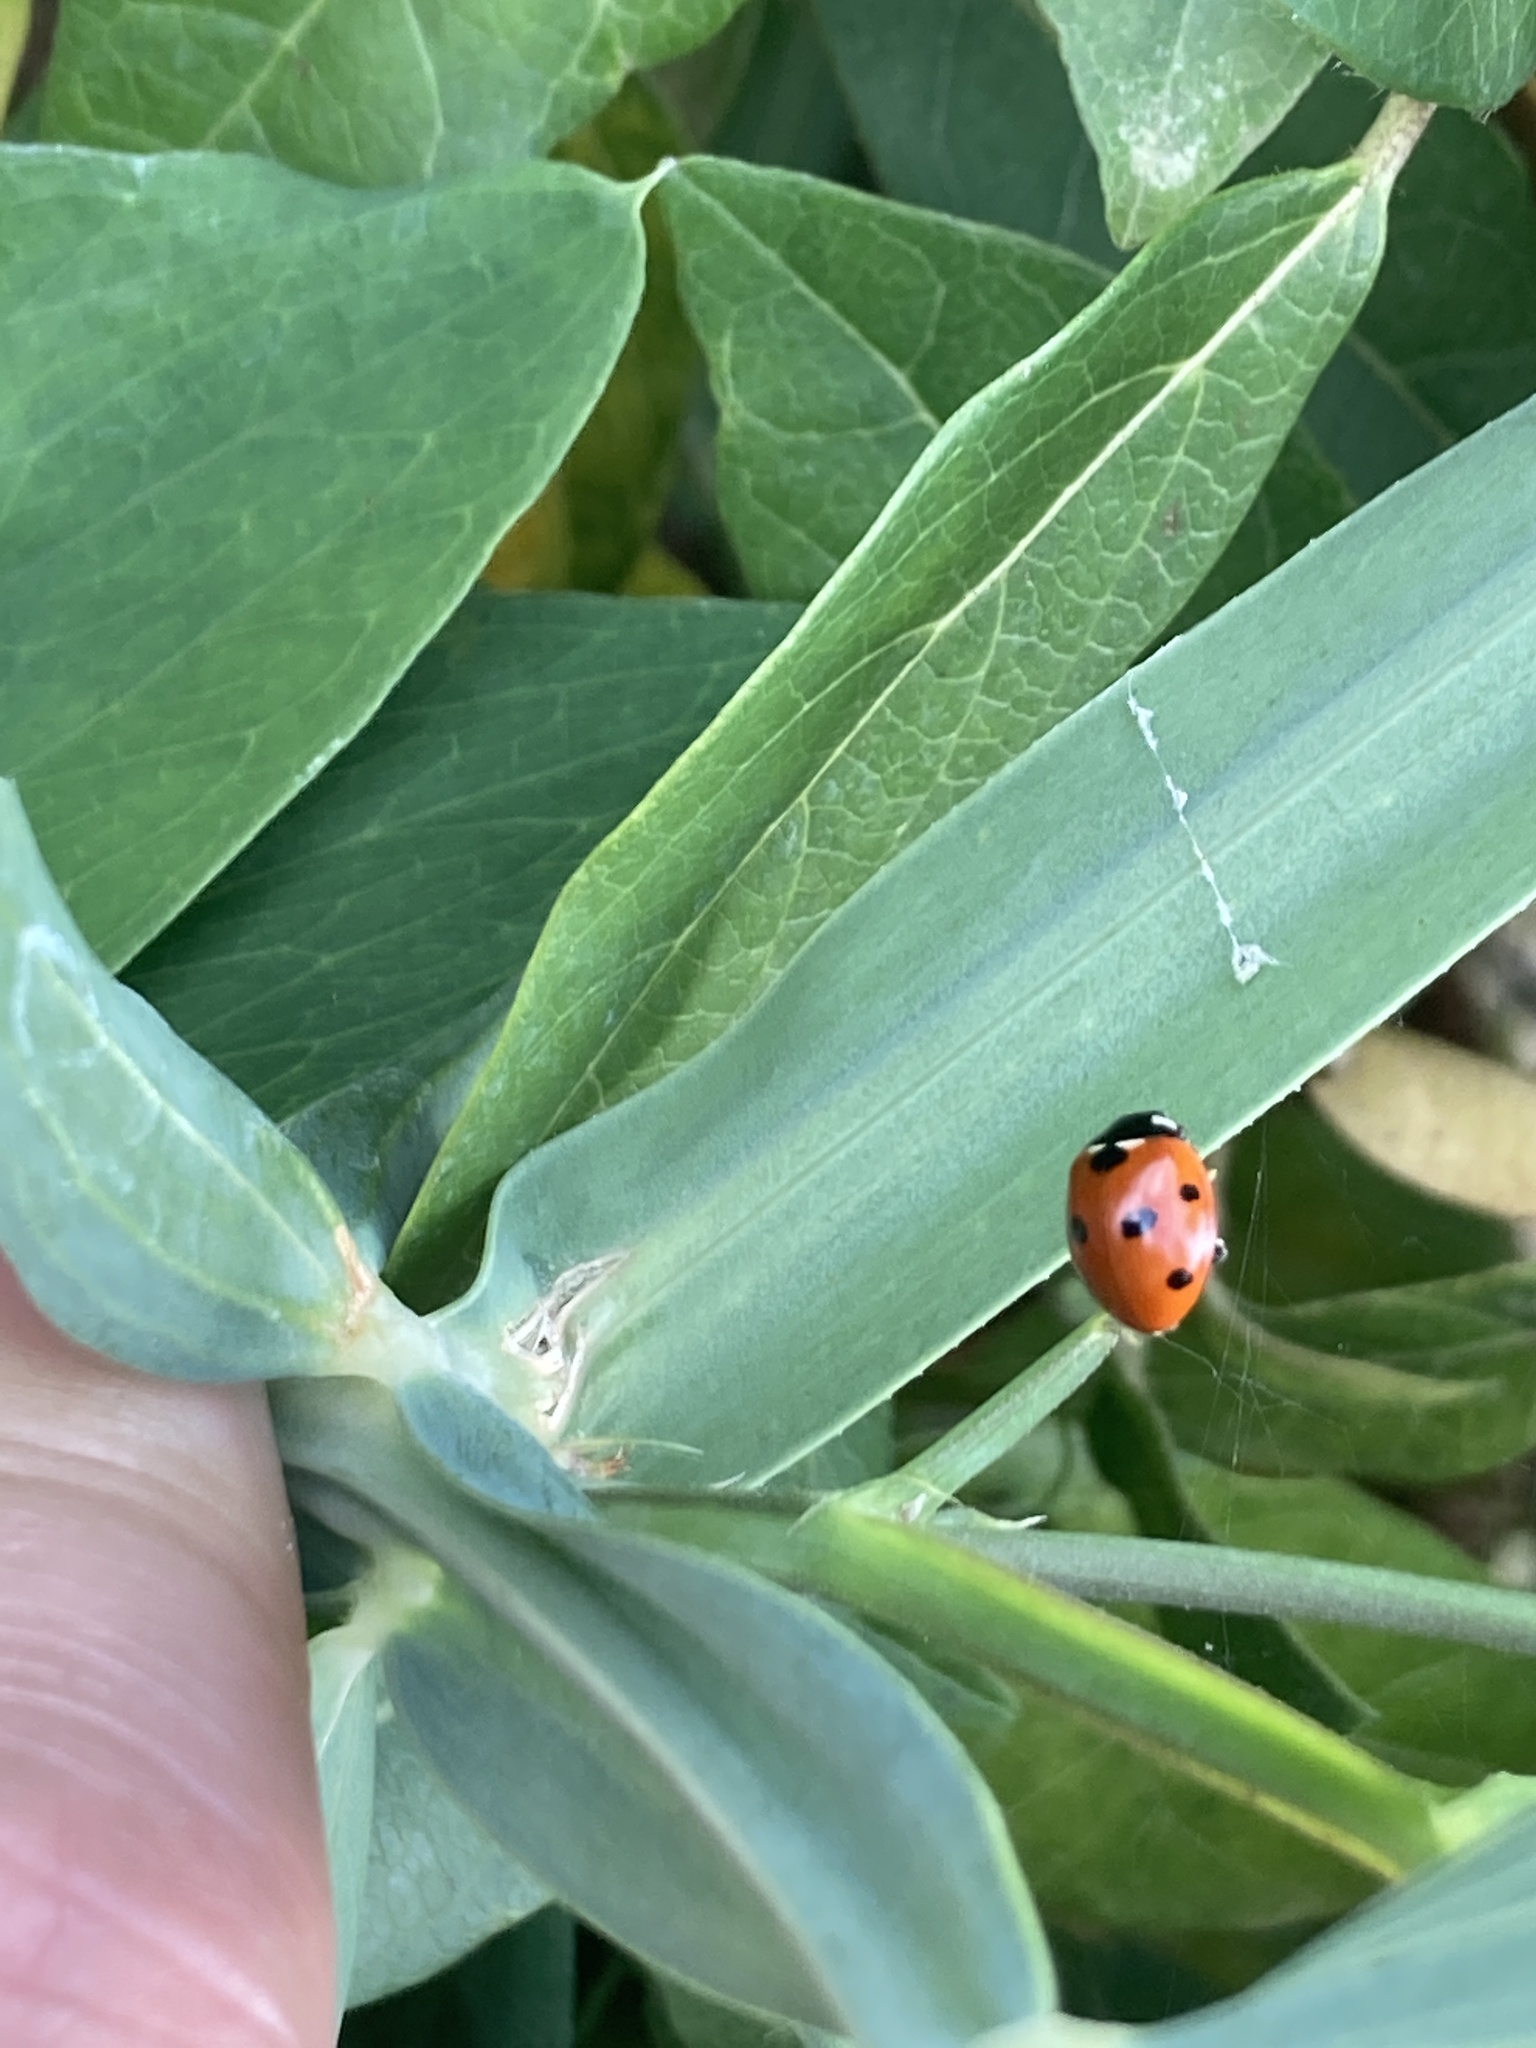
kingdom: Animalia
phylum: Arthropoda
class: Insecta
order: Coleoptera
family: Coccinellidae
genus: Coccinella
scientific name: Coccinella septempunctata
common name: Sevenspotted lady beetle
